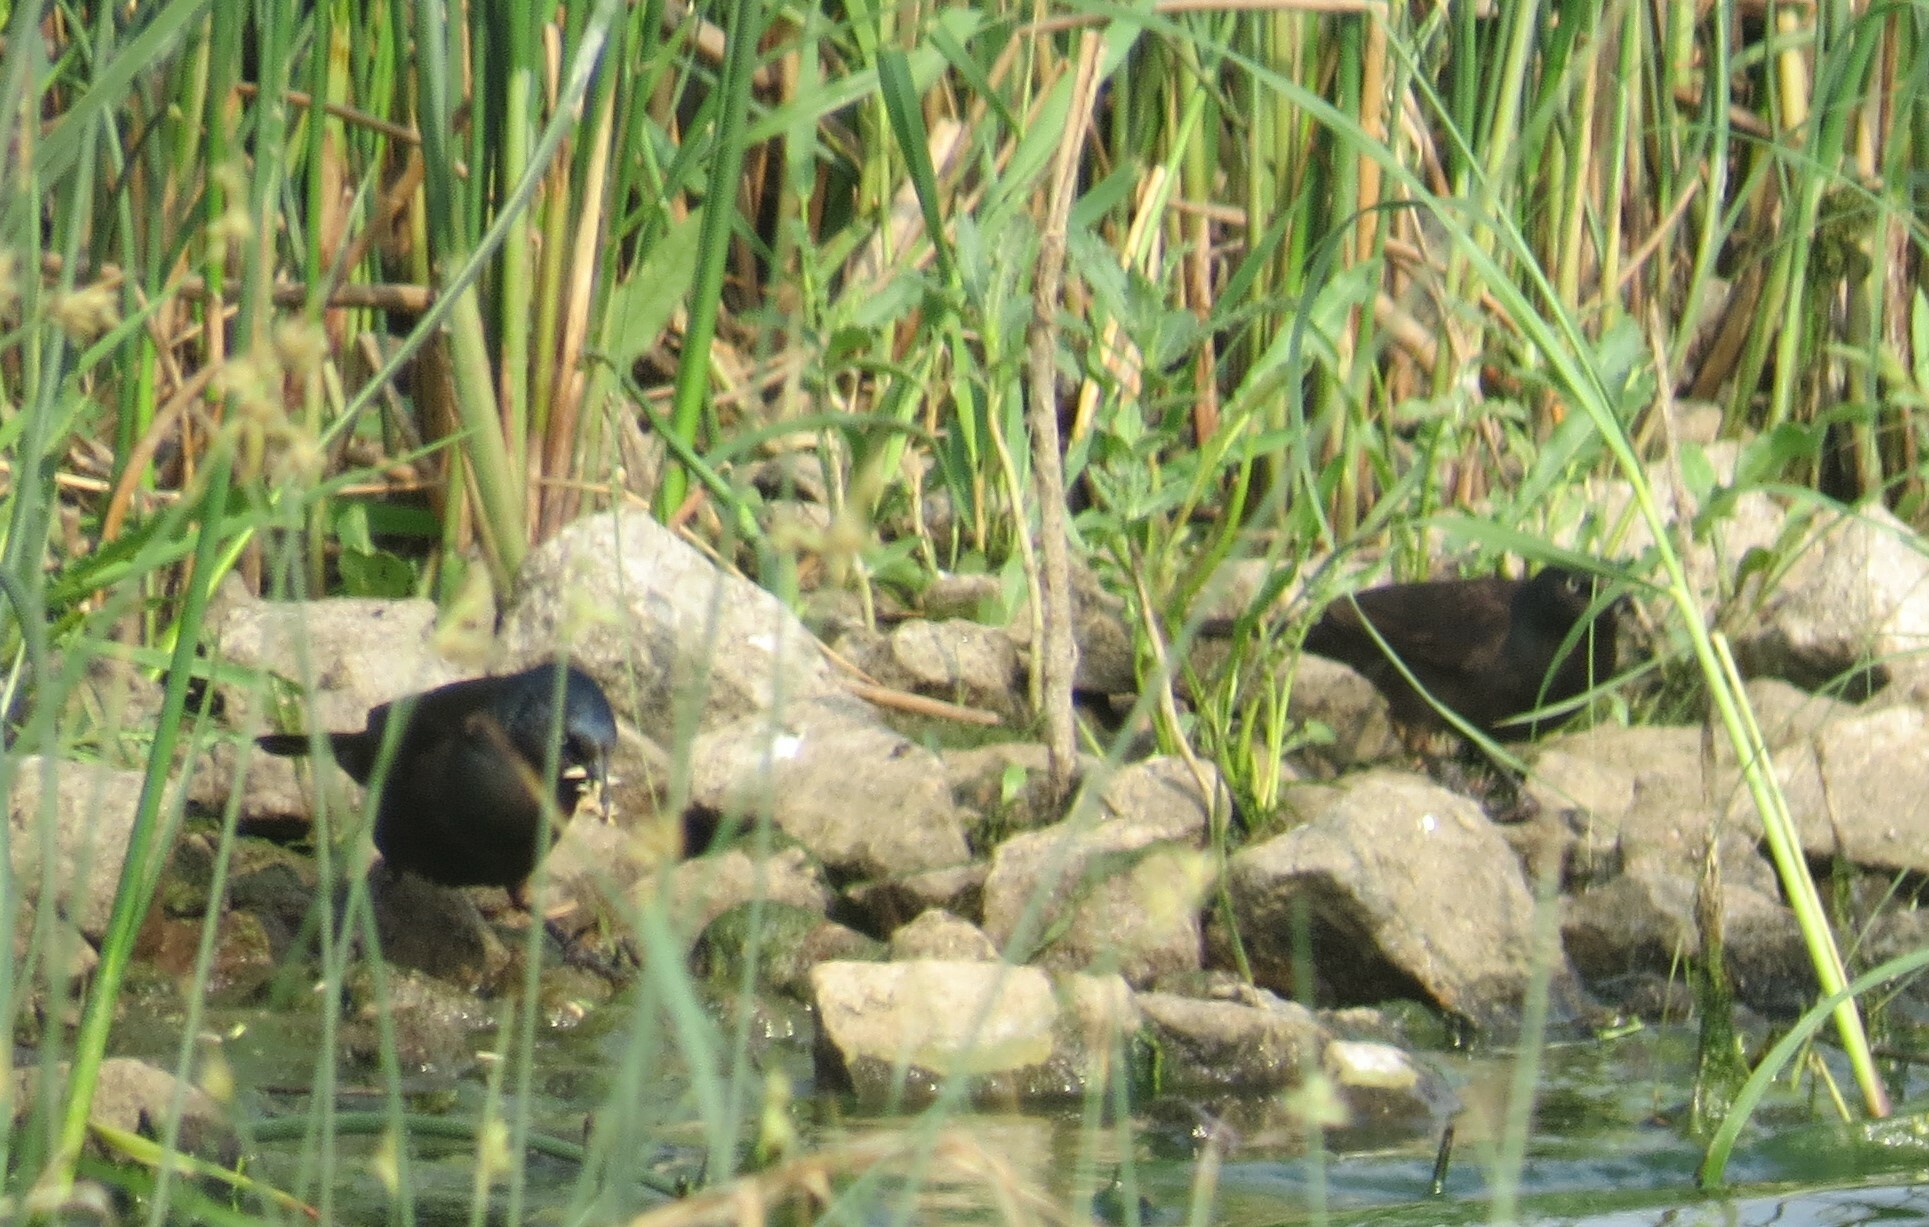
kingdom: Animalia
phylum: Chordata
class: Aves
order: Passeriformes
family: Icteridae
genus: Quiscalus
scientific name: Quiscalus quiscula
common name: Common grackle
